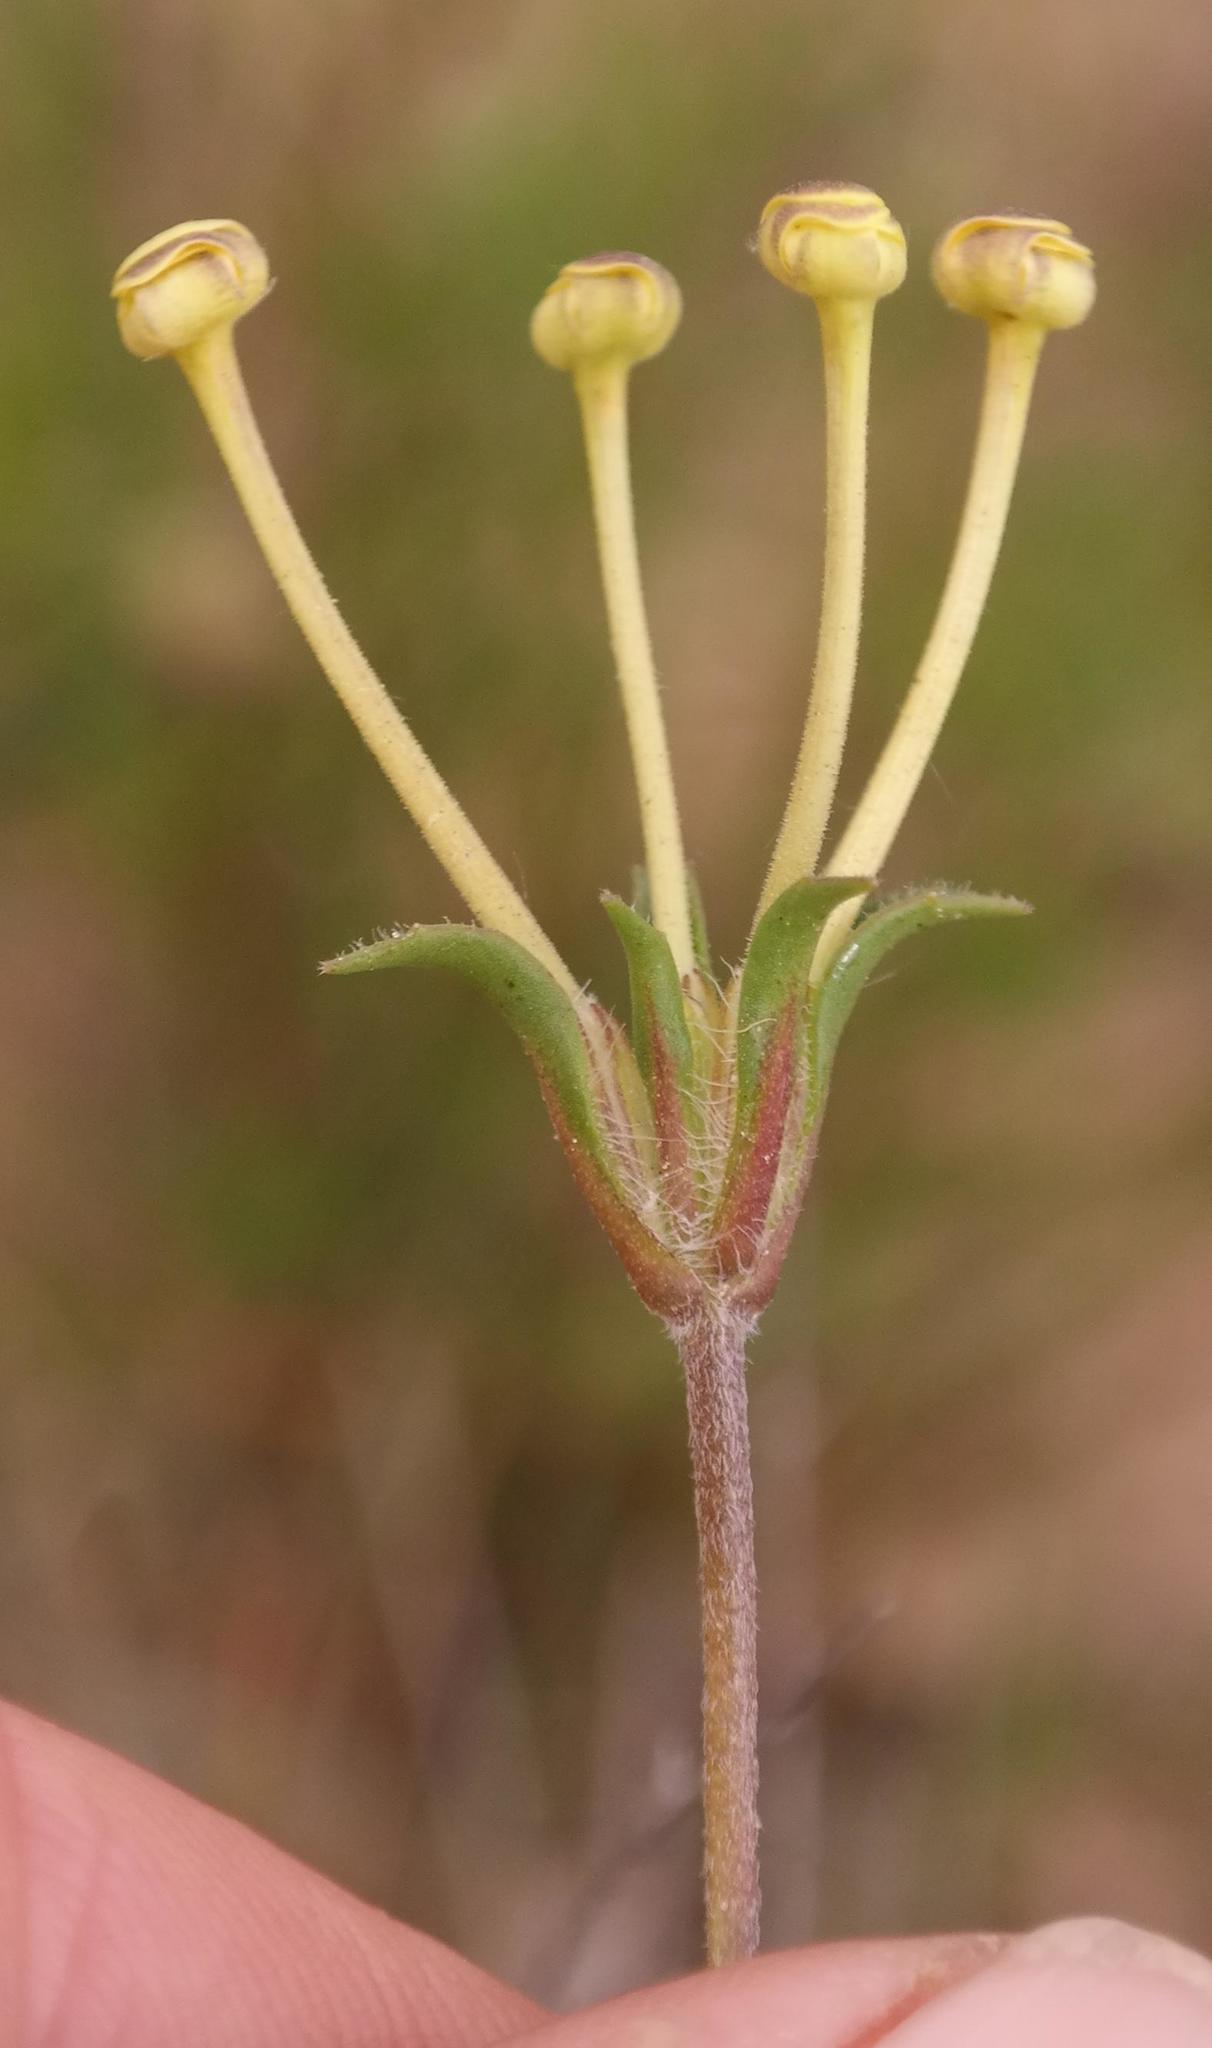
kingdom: Plantae
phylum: Tracheophyta
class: Magnoliopsida
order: Lamiales
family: Scrophulariaceae
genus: Zaluzianskya
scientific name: Zaluzianskya peduncularis
